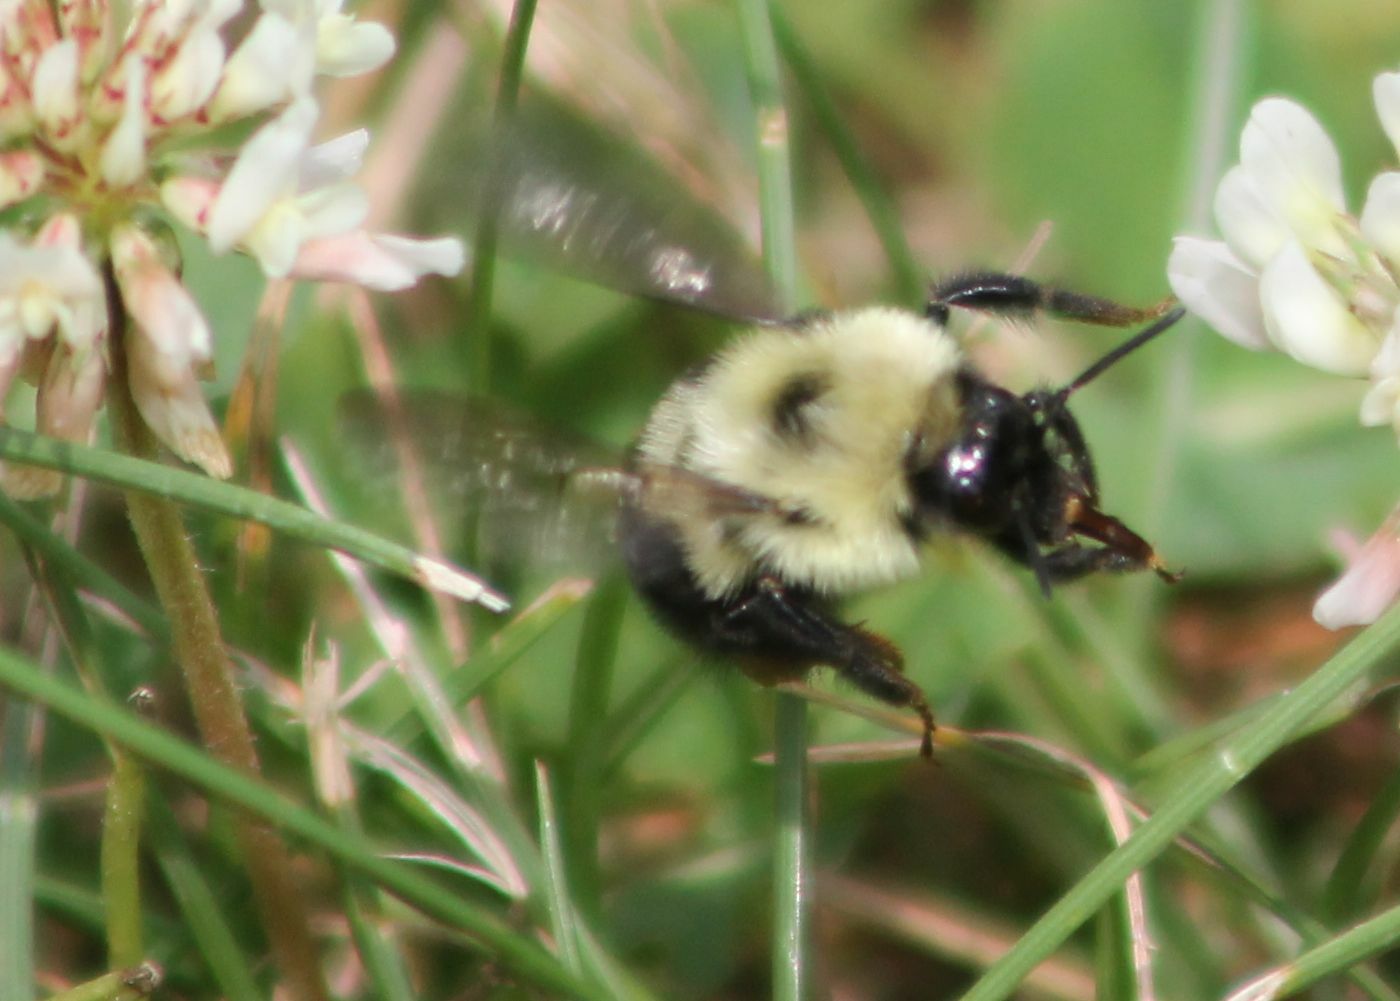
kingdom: Animalia
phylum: Arthropoda
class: Insecta
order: Hymenoptera
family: Apidae
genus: Bombus
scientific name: Bombus bimaculatus
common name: Two-spotted bumble bee
